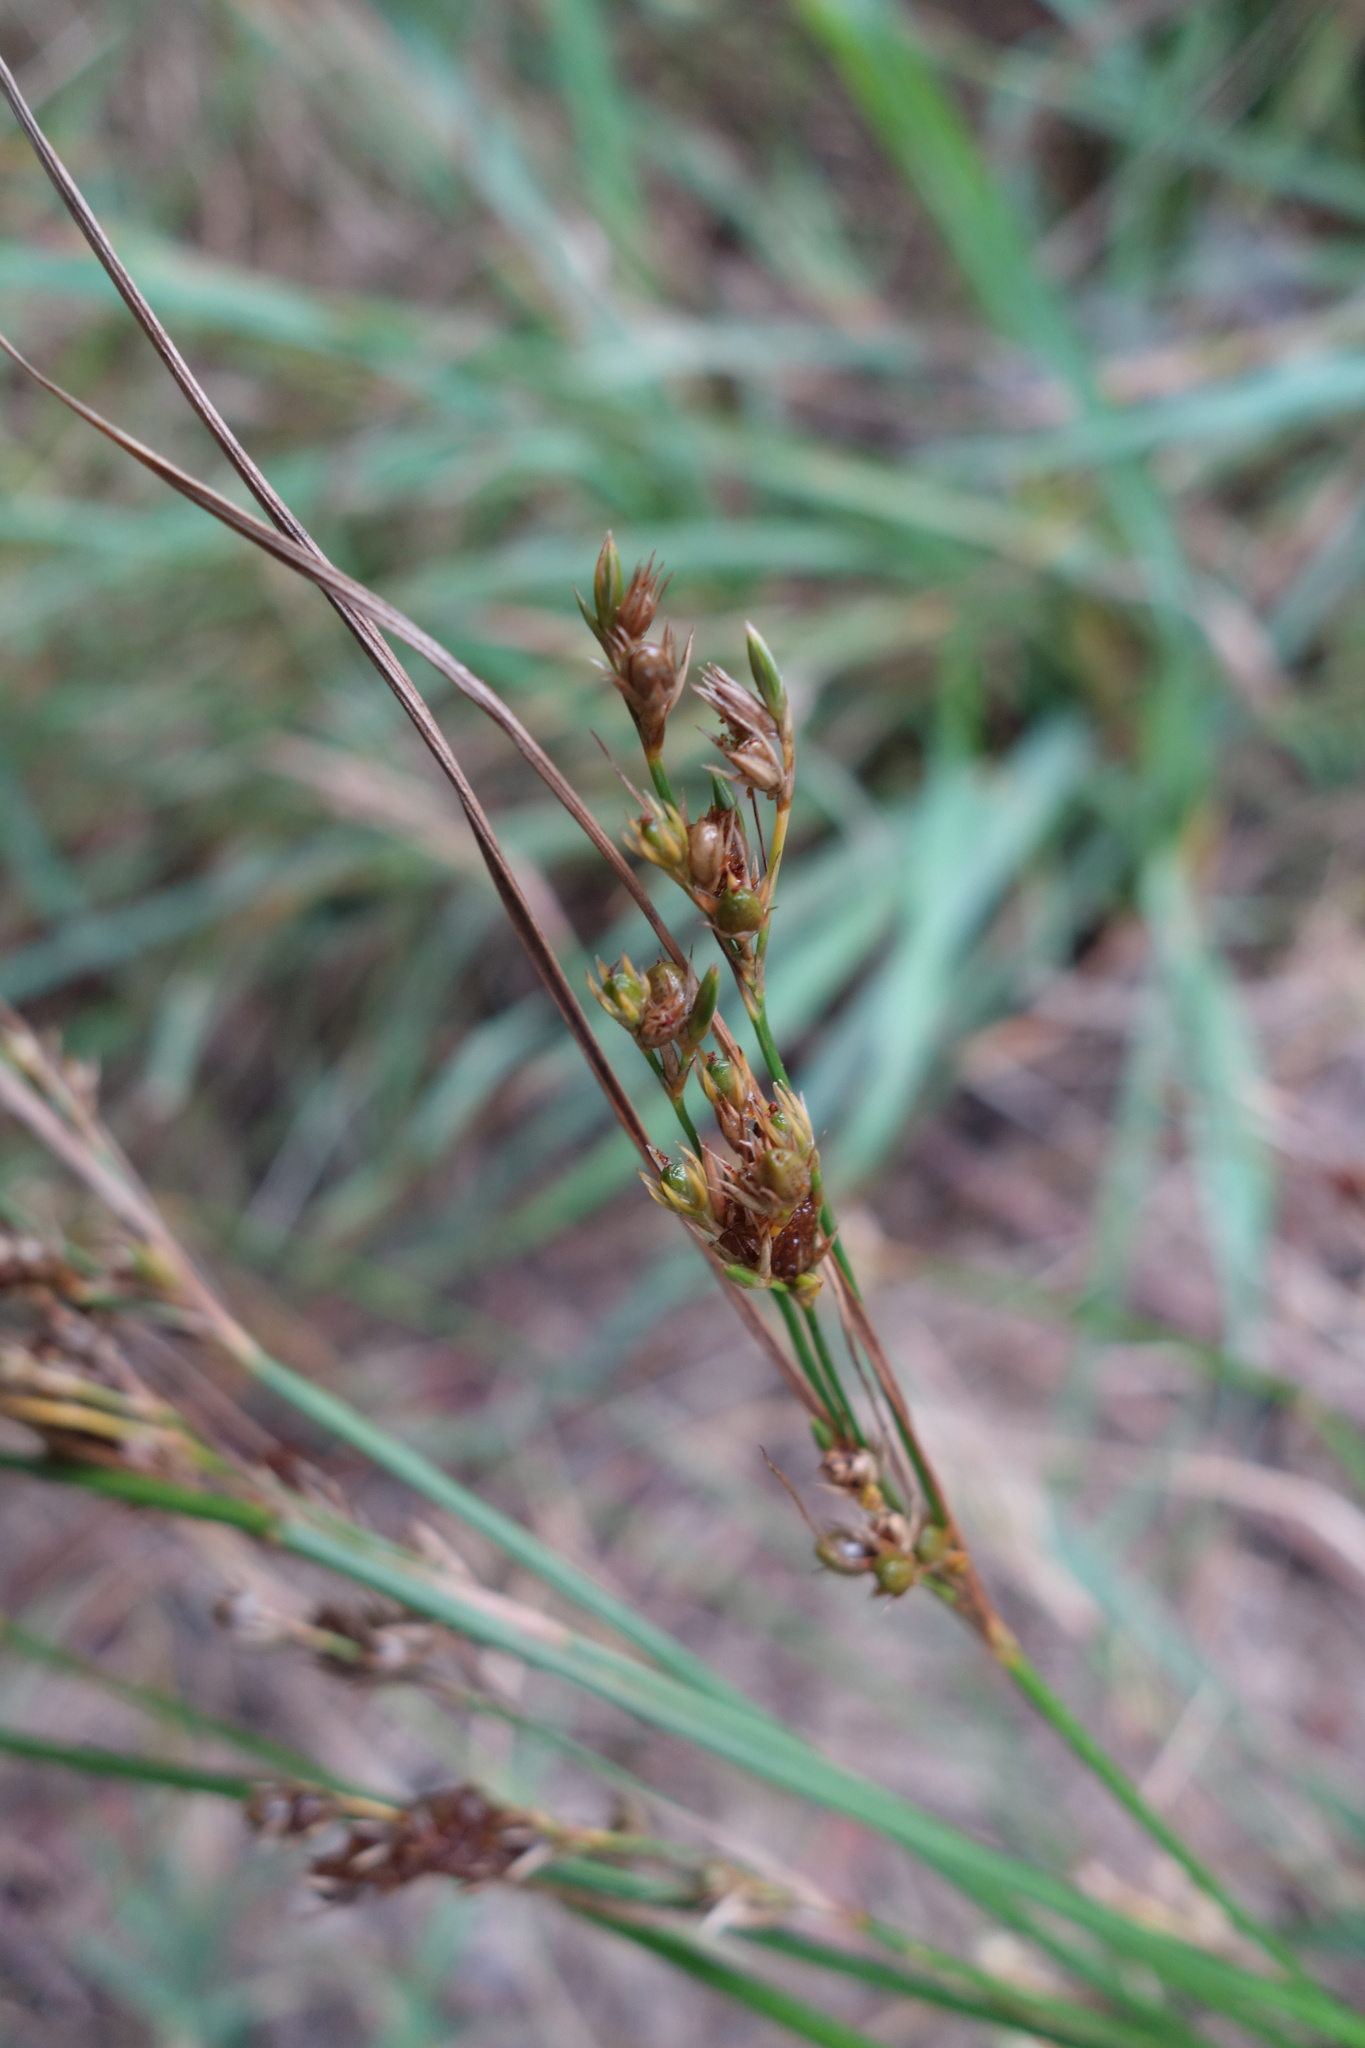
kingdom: Plantae
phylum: Tracheophyta
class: Liliopsida
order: Poales
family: Juncaceae
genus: Juncus
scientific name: Juncus tenuis
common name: Slender rush
